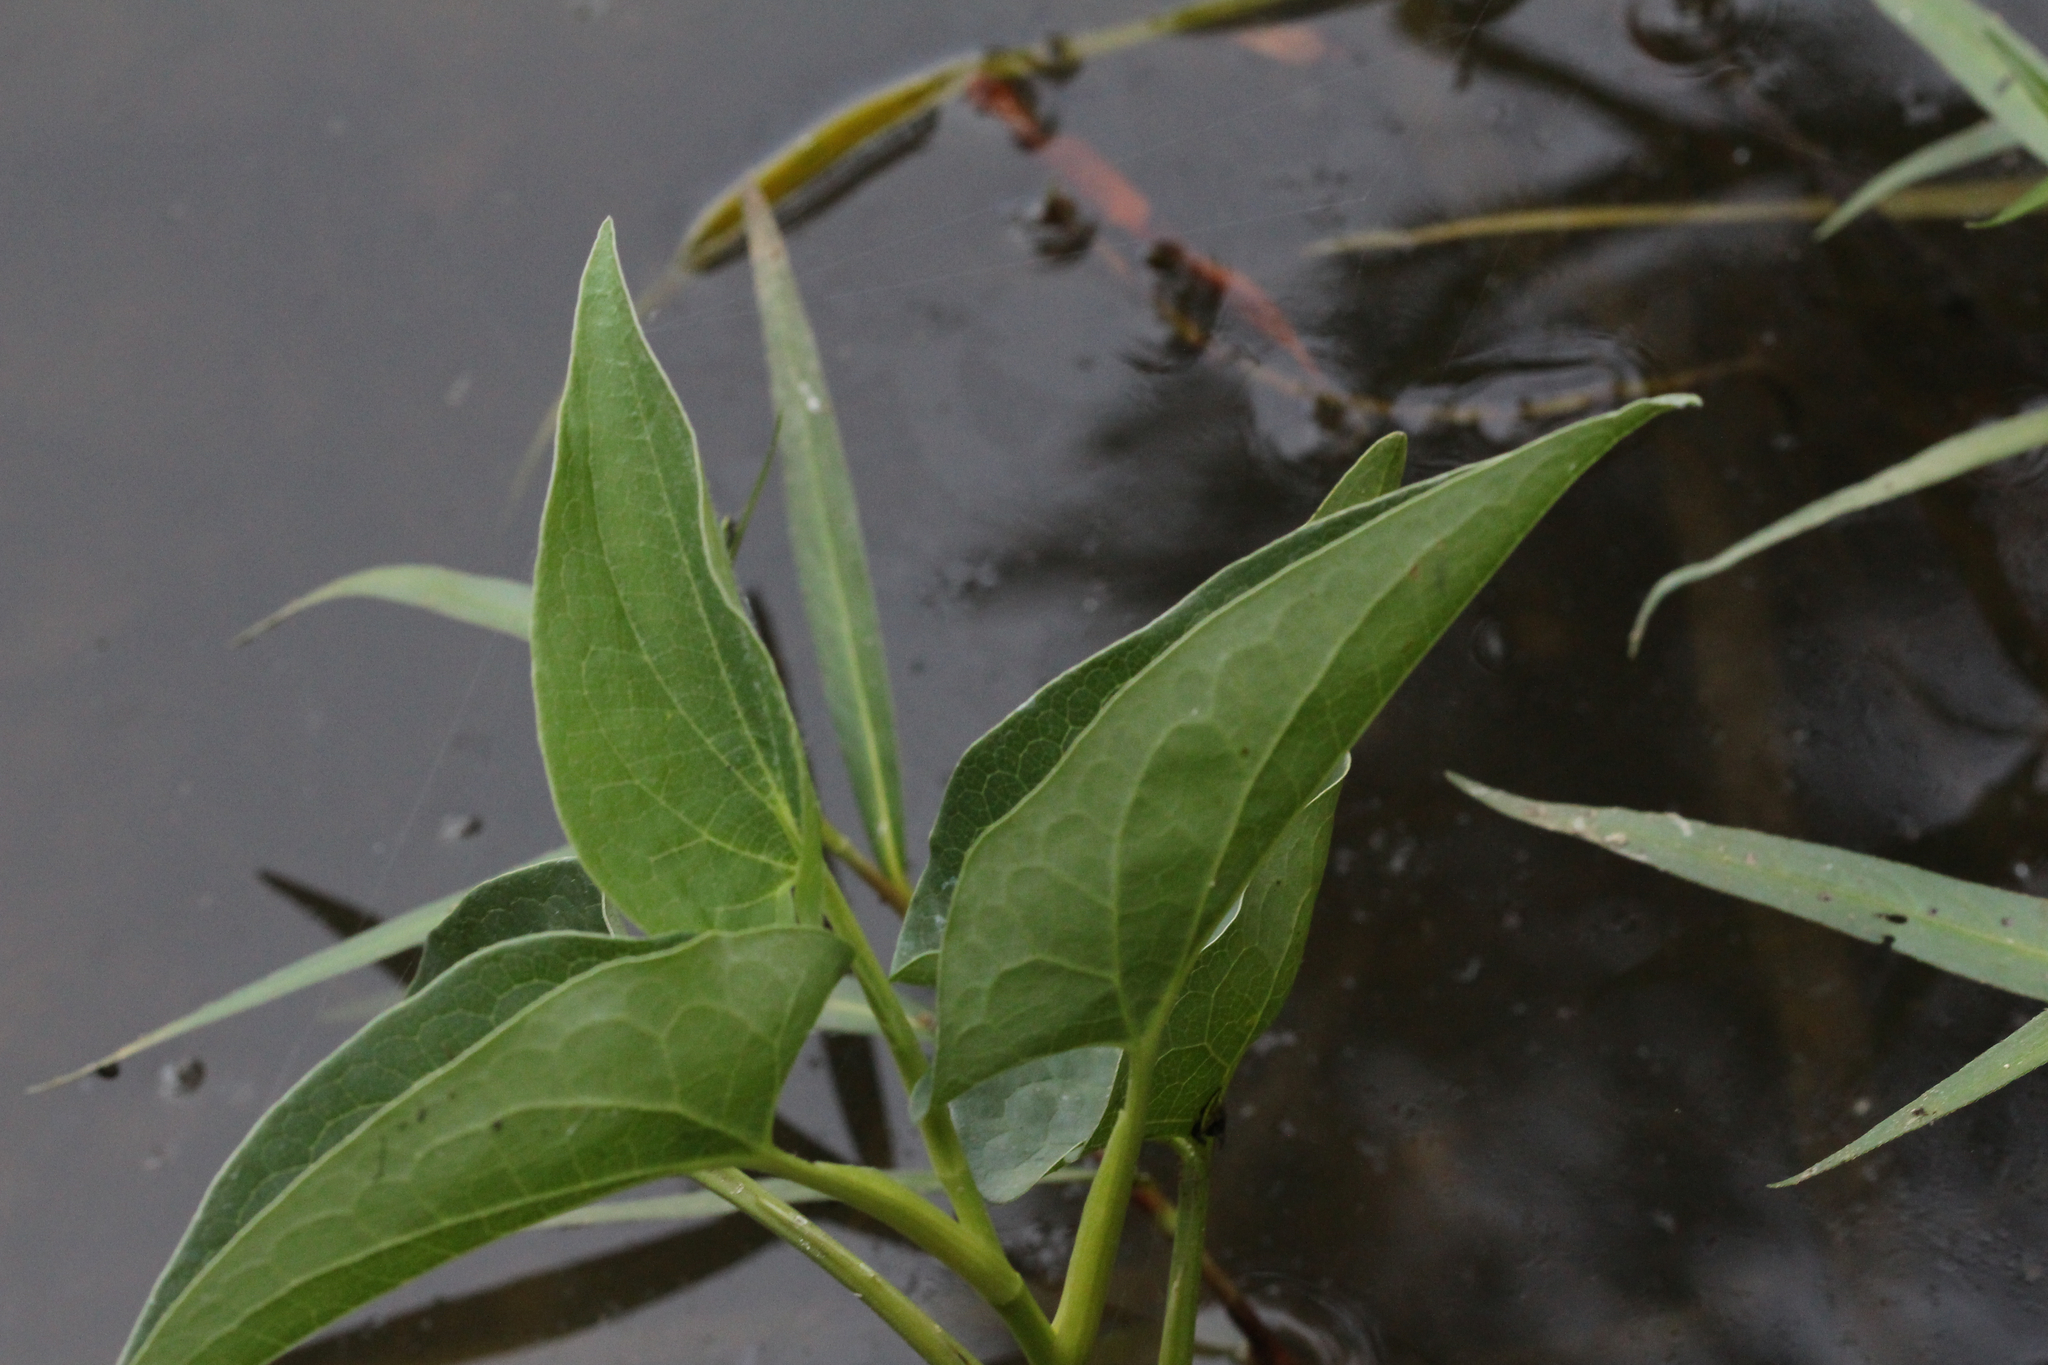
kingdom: Plantae
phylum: Tracheophyta
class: Magnoliopsida
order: Piperales
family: Saururaceae
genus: Saururus
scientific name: Saururus cernuus
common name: Lizard's-tail
